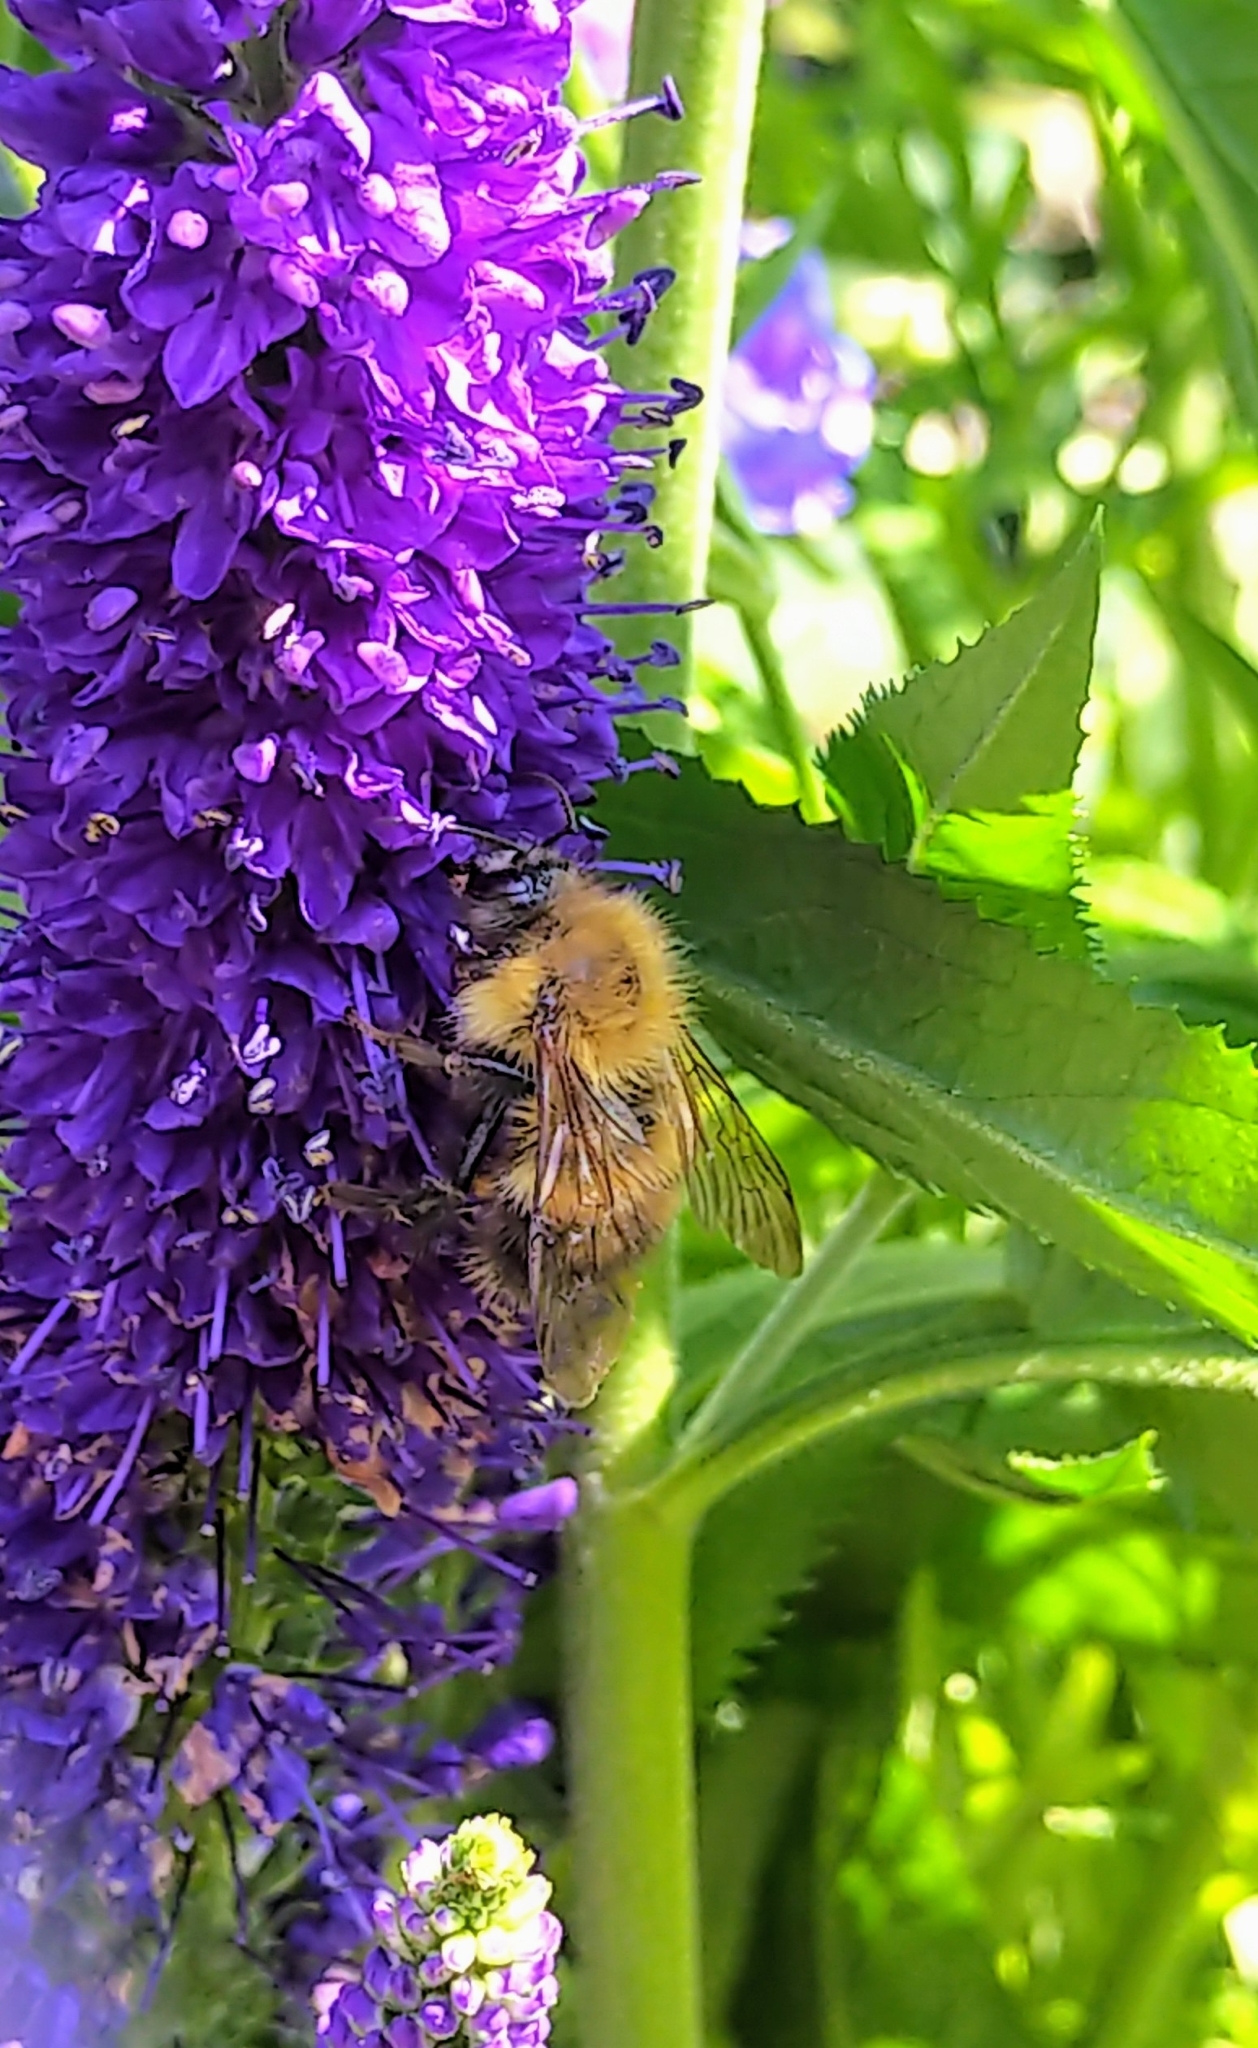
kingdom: Animalia
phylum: Arthropoda
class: Insecta
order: Hymenoptera
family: Apidae
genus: Bombus
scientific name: Bombus perplexus
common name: Confusing bumble bee
